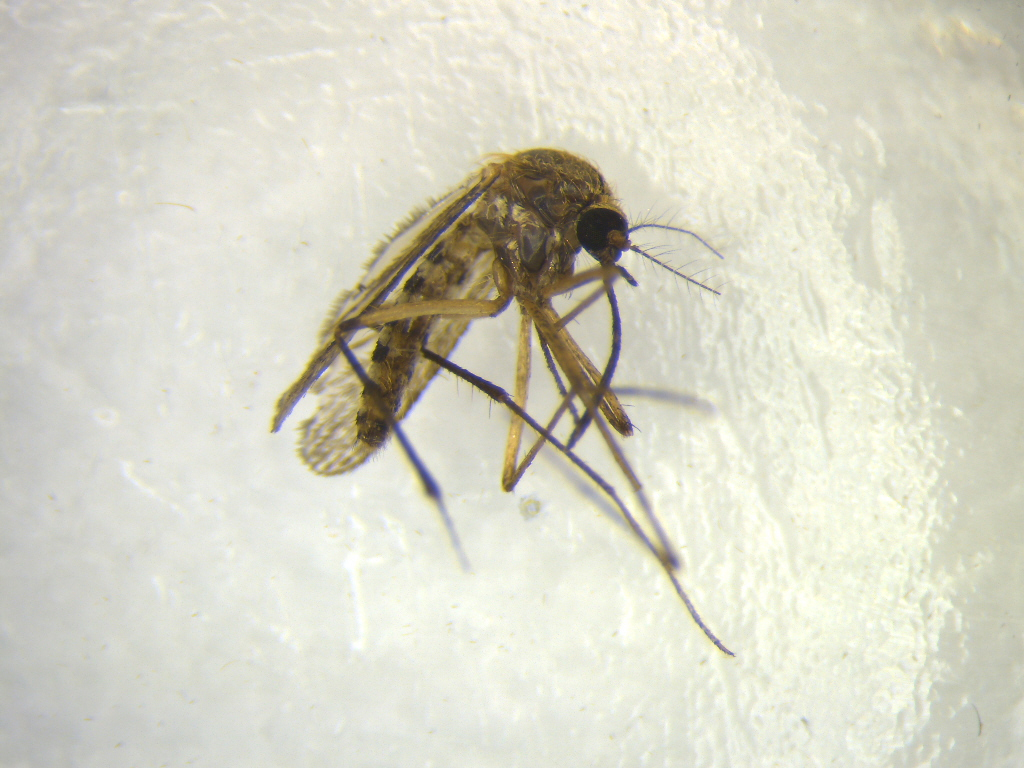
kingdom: Animalia
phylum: Arthropoda
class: Insecta
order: Diptera
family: Culicidae
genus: Coquillettidia
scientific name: Coquillettidia iracunda
